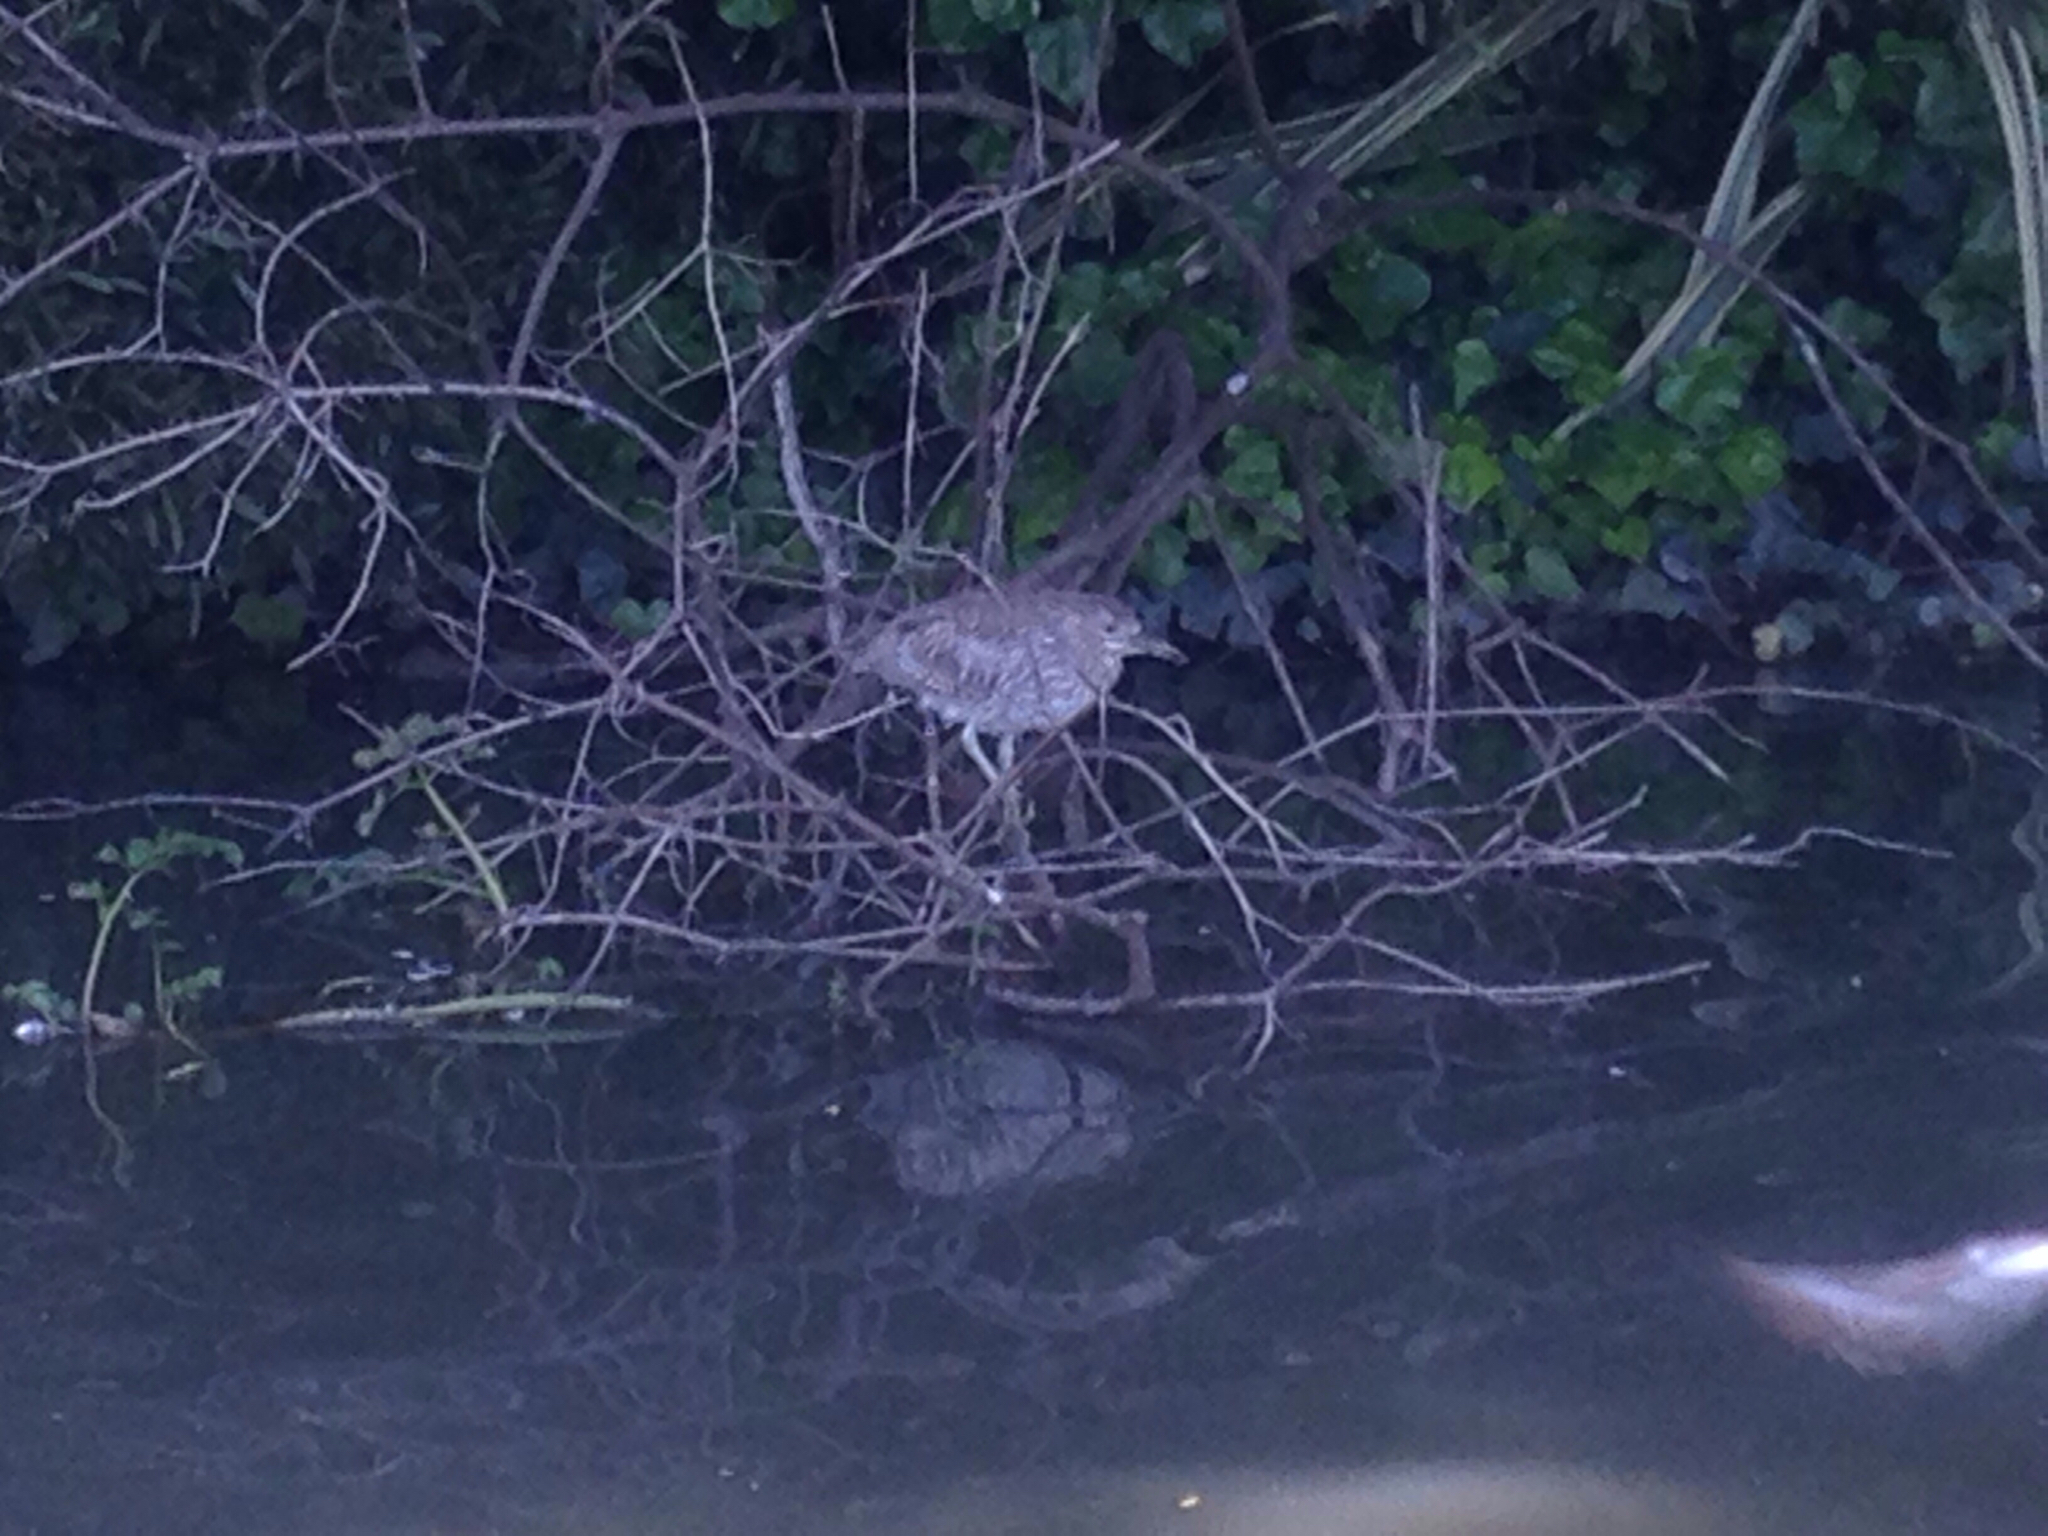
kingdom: Animalia
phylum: Chordata
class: Aves
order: Pelecaniformes
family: Ardeidae
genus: Nycticorax
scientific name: Nycticorax nycticorax
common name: Black-crowned night heron
